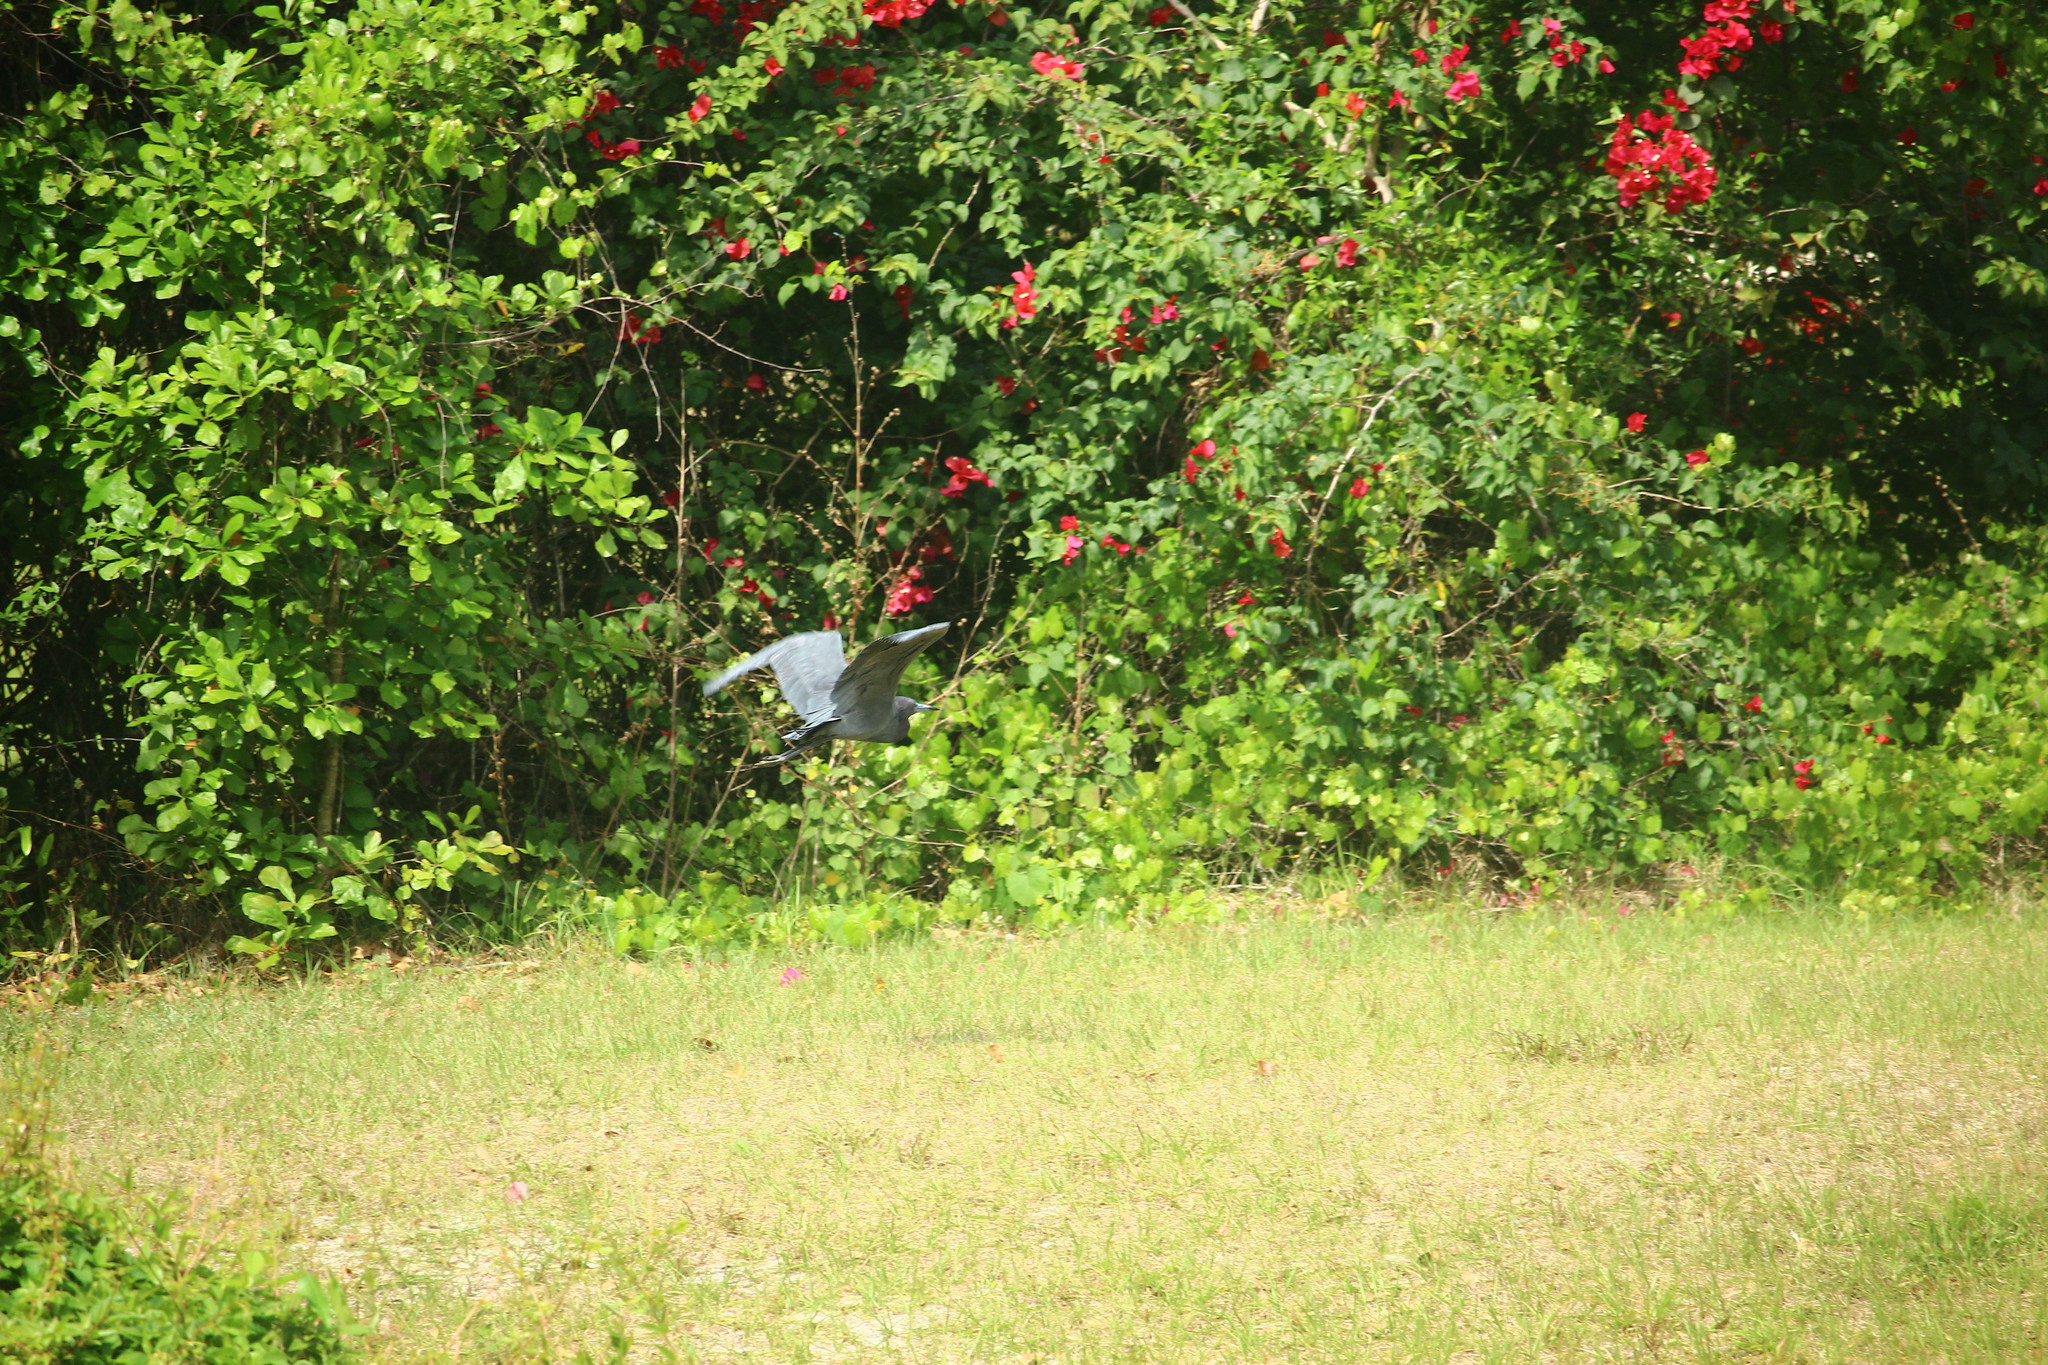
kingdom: Animalia
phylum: Chordata
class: Aves
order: Pelecaniformes
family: Ardeidae
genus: Egretta
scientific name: Egretta caerulea
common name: Little blue heron
